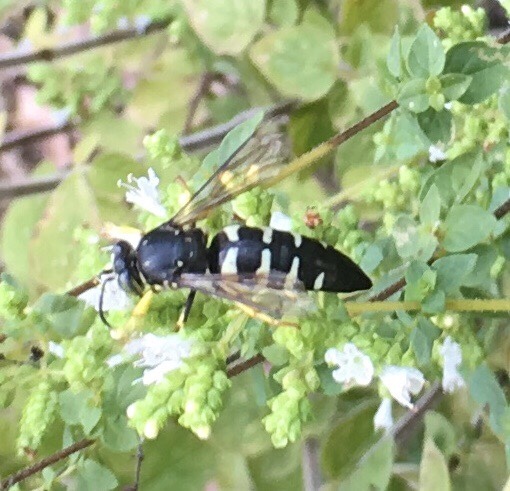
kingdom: Animalia
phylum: Arthropoda
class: Insecta
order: Hymenoptera
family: Crabronidae
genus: Bicyrtes
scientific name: Bicyrtes quadrifasciatus
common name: Four-banded stink bug hunter wasp
